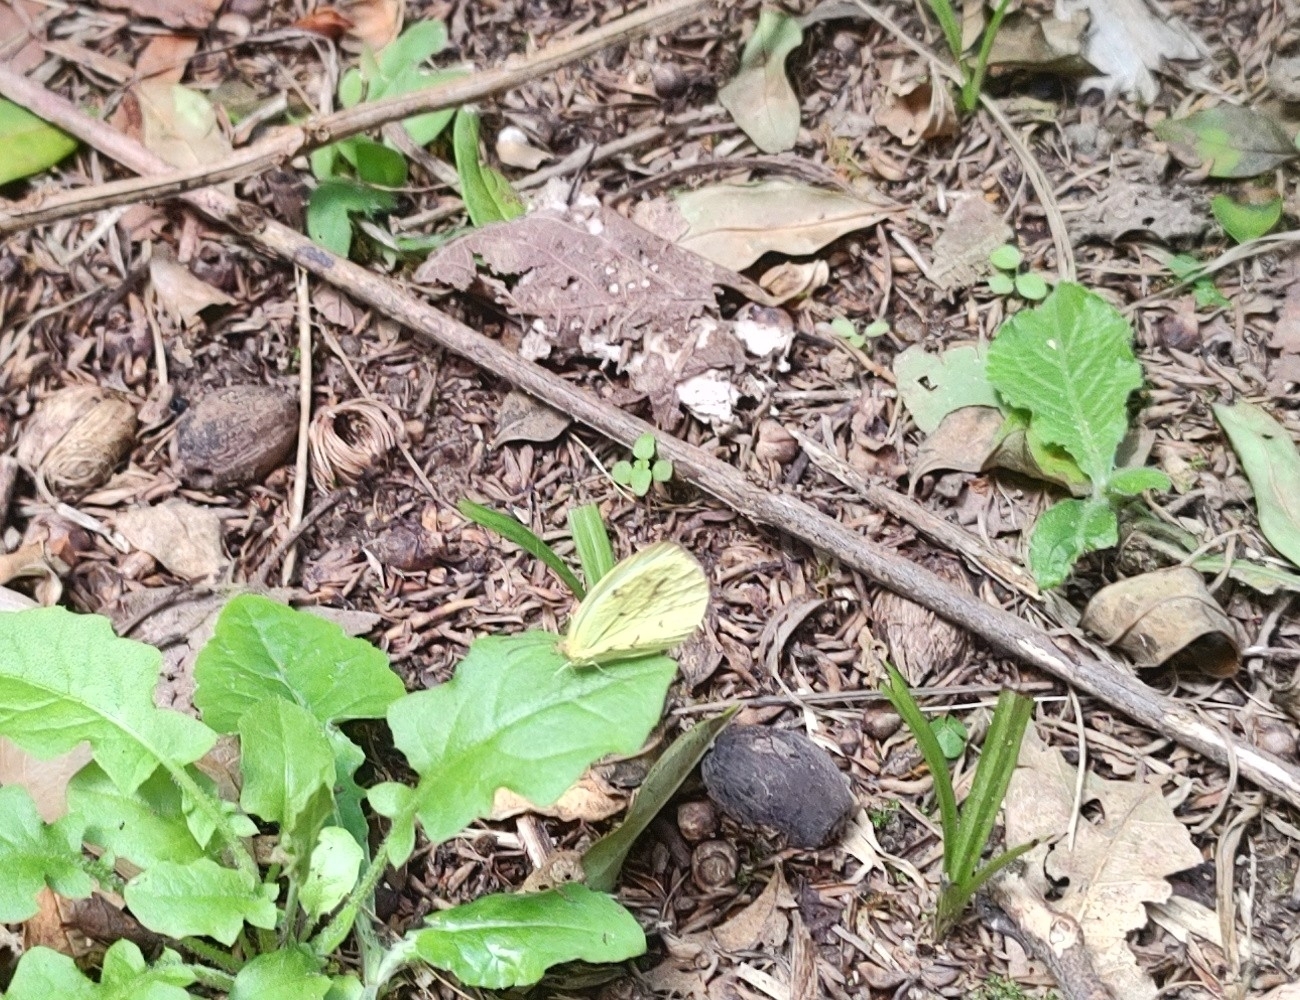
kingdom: Animalia
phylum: Arthropoda
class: Insecta
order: Lepidoptera
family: Pieridae
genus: Abaeis
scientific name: Abaeis albula
